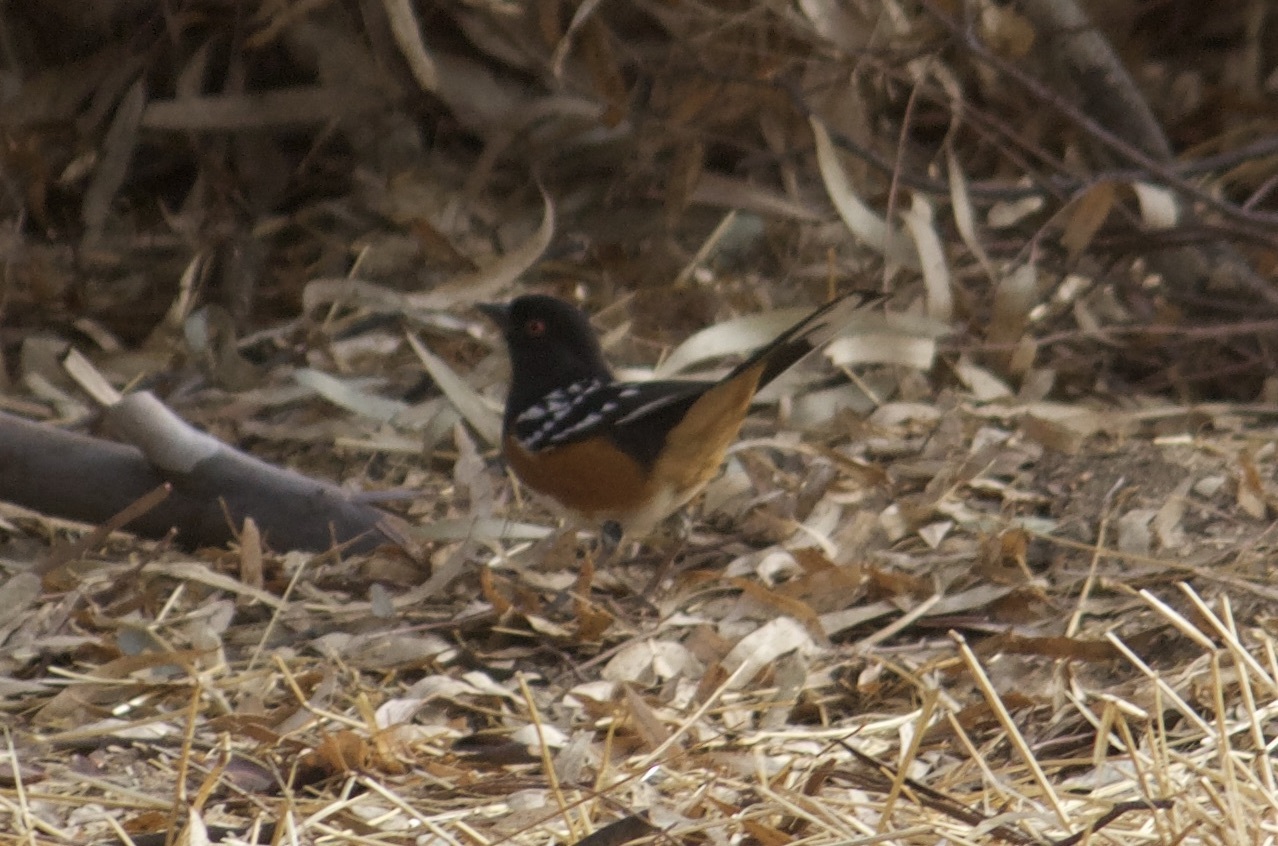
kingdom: Animalia
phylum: Chordata
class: Aves
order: Passeriformes
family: Passerellidae
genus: Pipilo
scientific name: Pipilo maculatus
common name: Spotted towhee
